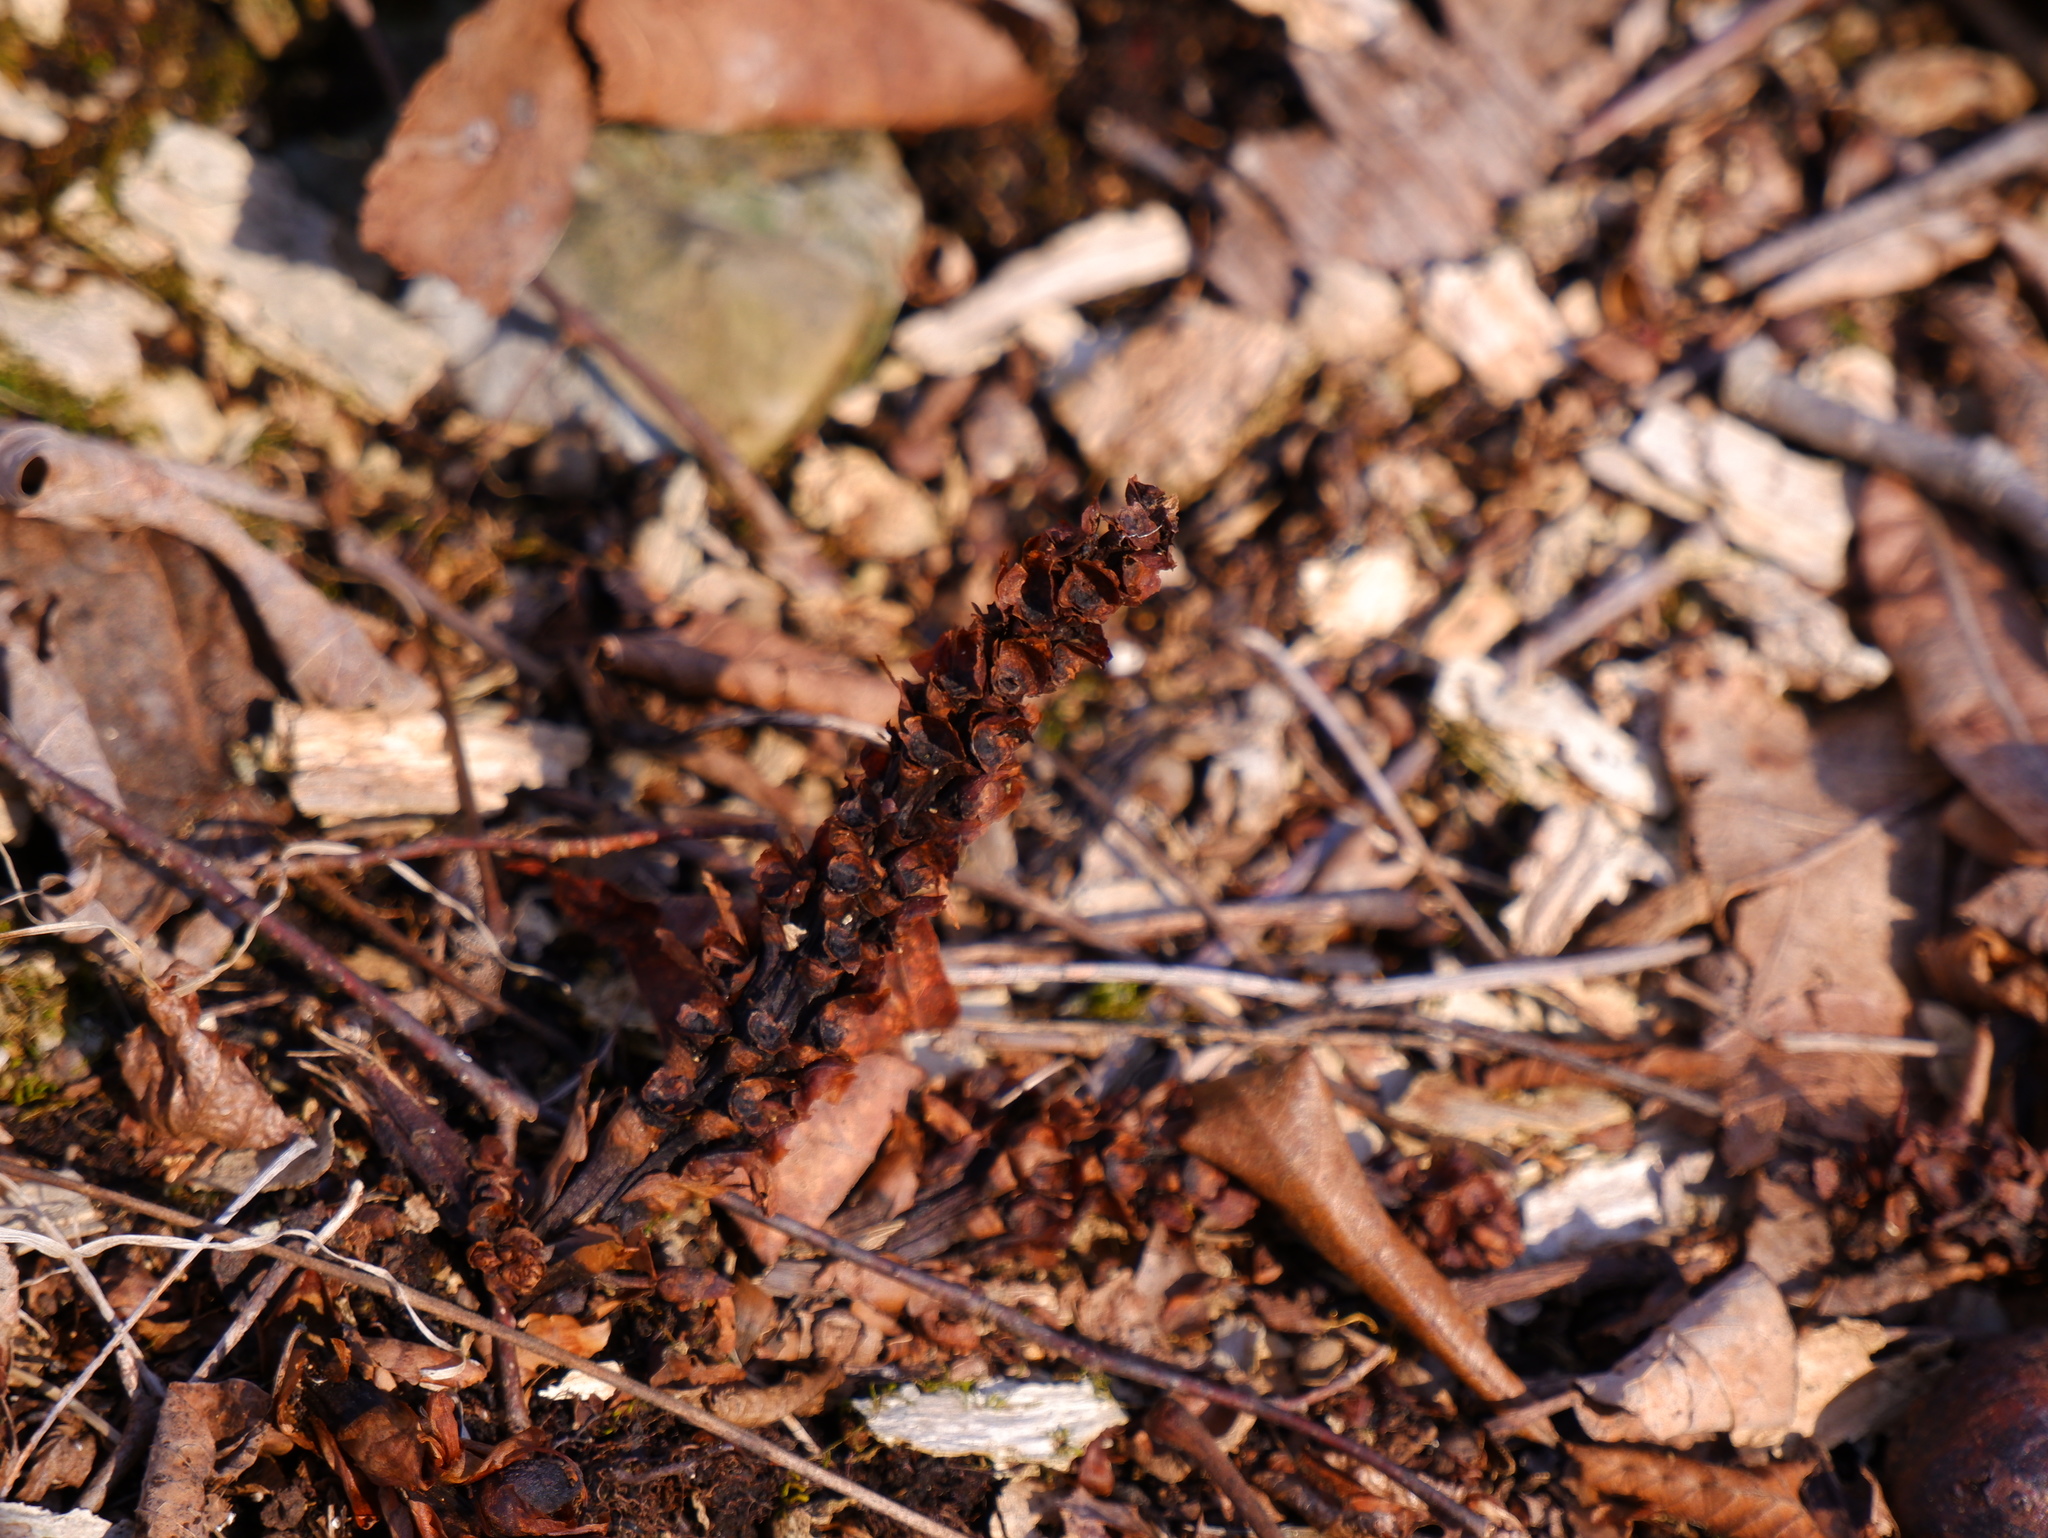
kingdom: Plantae
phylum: Tracheophyta
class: Magnoliopsida
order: Lamiales
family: Orobanchaceae
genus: Conopholis
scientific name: Conopholis americana
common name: American cancer-root
